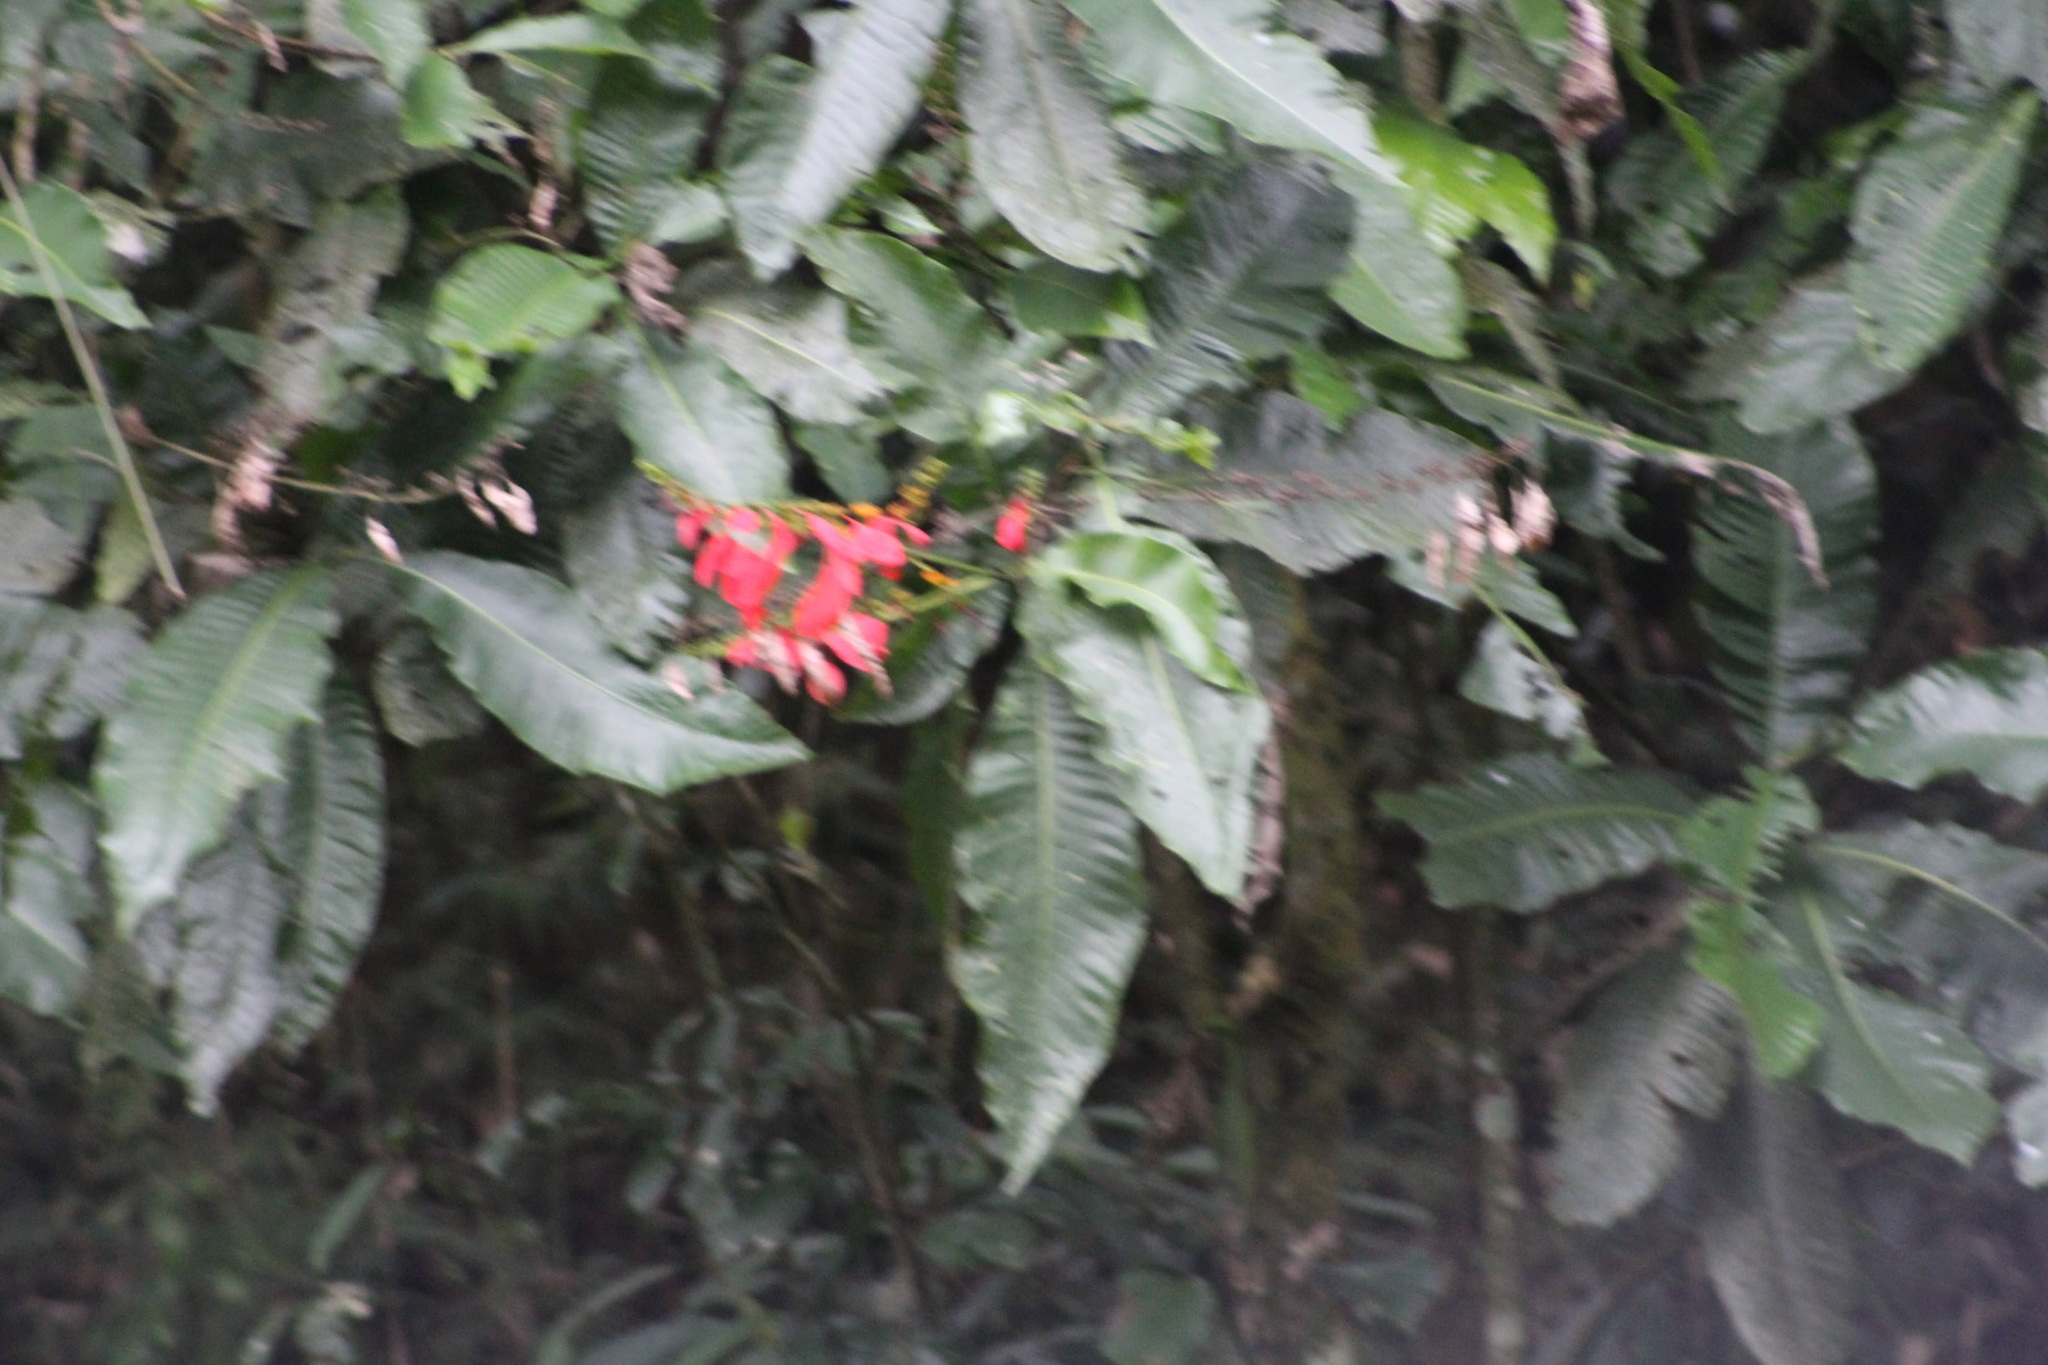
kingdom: Plantae
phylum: Tracheophyta
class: Magnoliopsida
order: Gentianales
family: Rubiaceae
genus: Warszewiczia
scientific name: Warszewiczia coccinea
